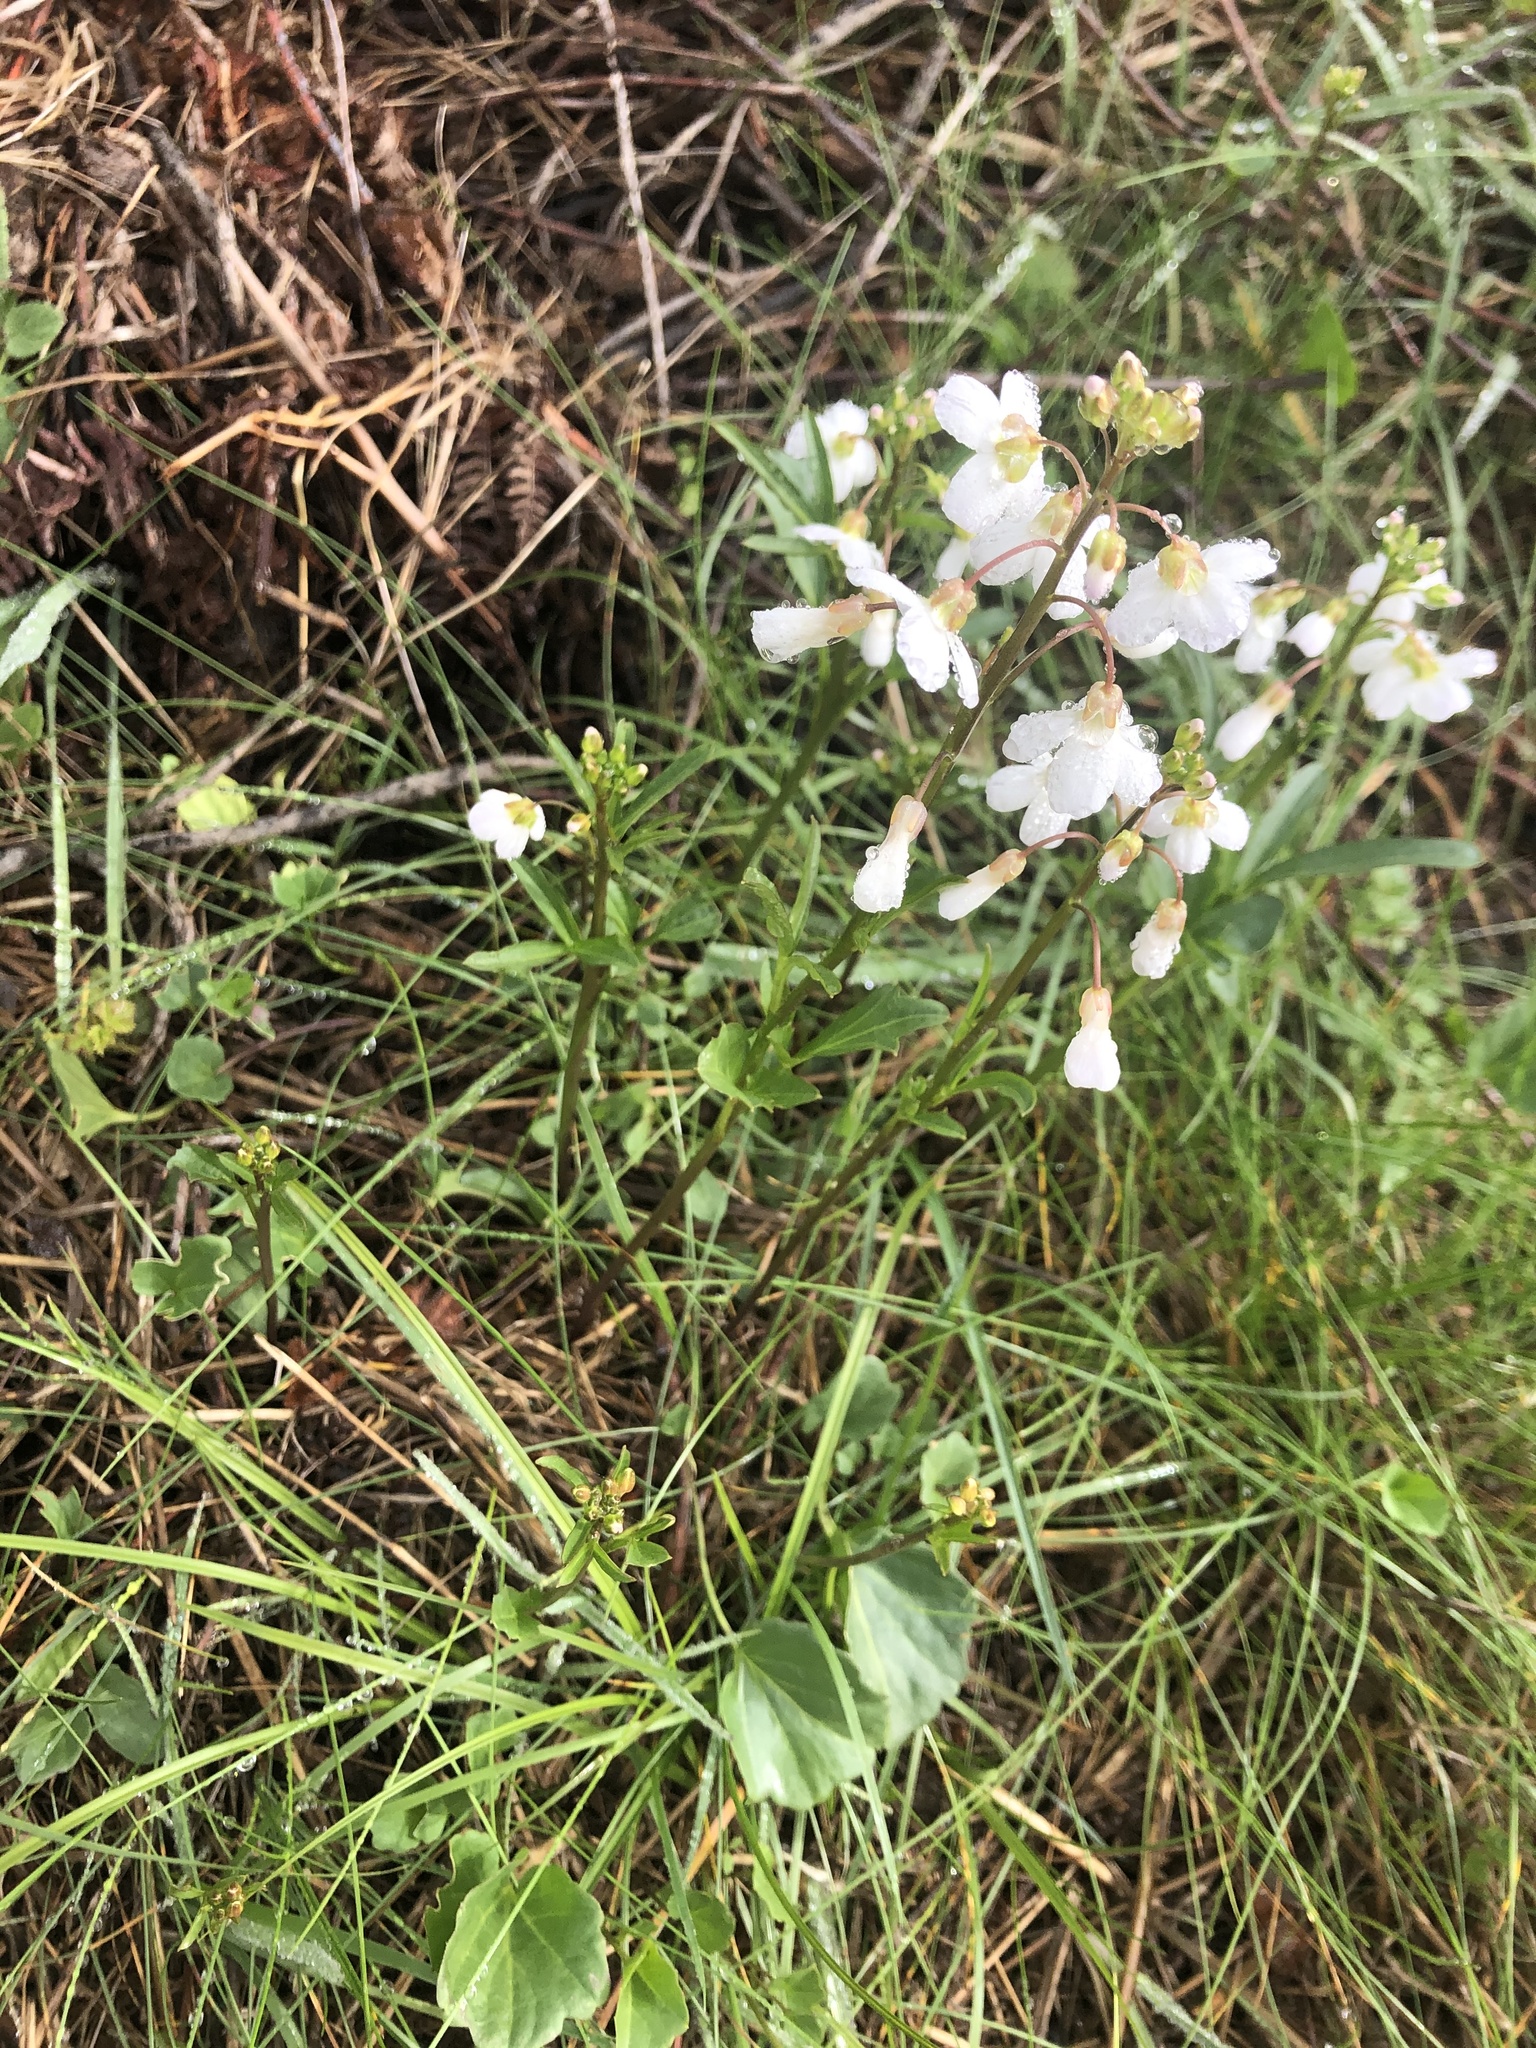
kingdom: Plantae
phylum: Tracheophyta
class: Magnoliopsida
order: Brassicales
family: Brassicaceae
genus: Cardamine
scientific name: Cardamine californica
